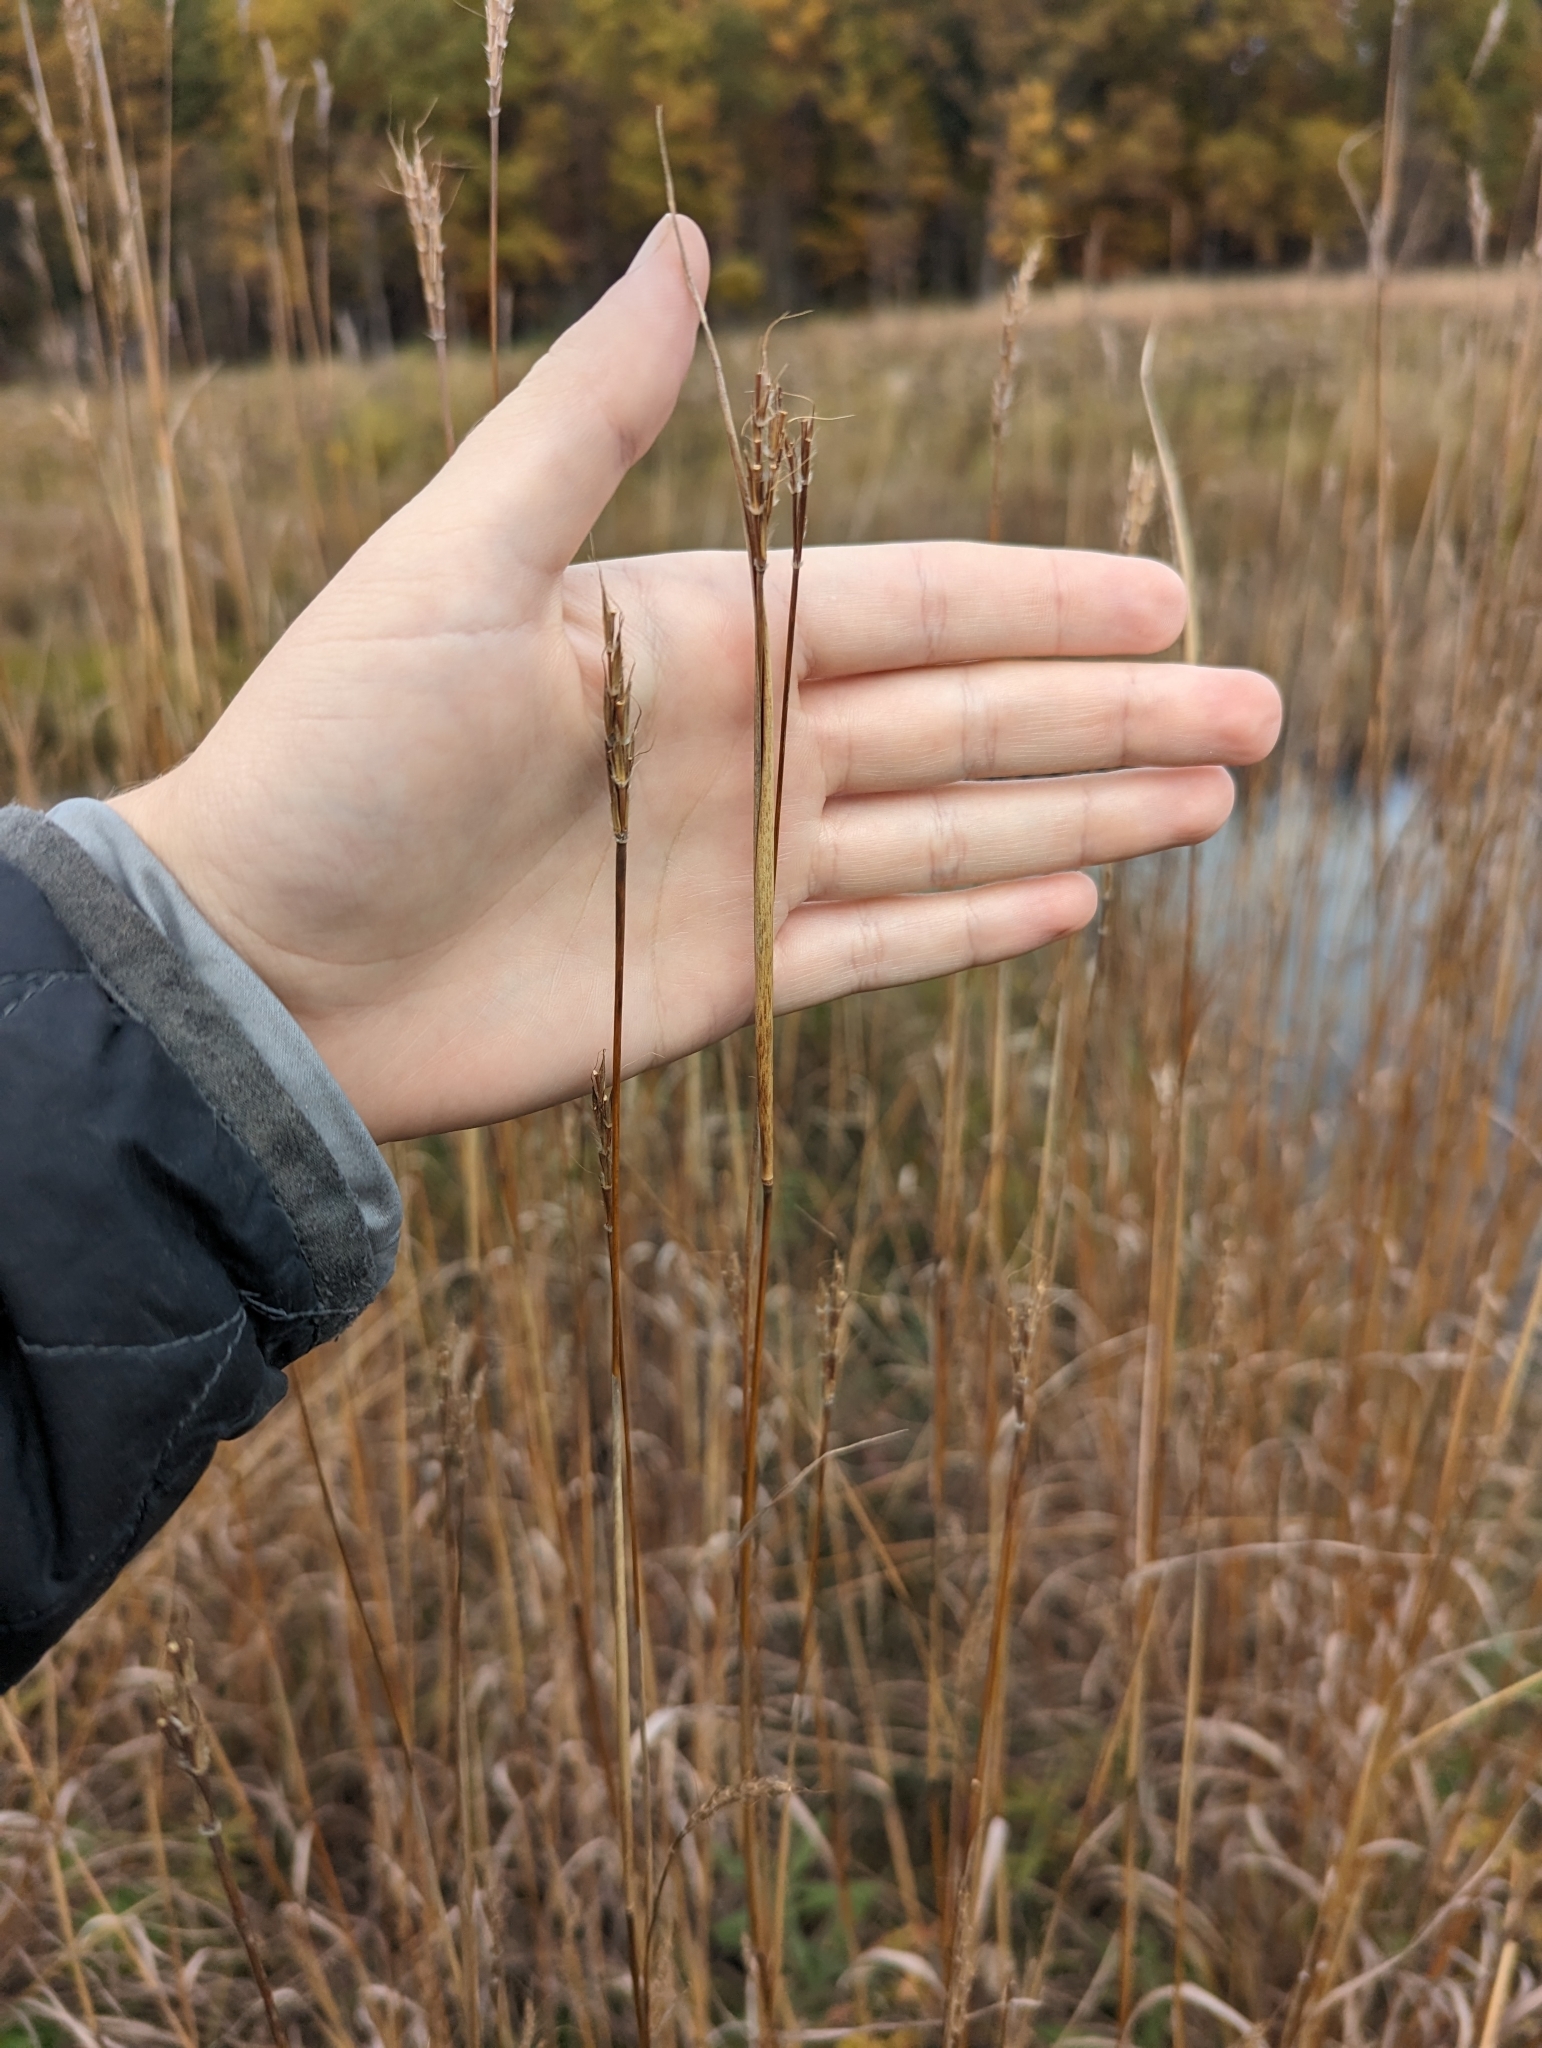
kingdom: Plantae
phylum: Tracheophyta
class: Liliopsida
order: Poales
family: Poaceae
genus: Andropogon
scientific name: Andropogon gerardi
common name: Big bluestem
